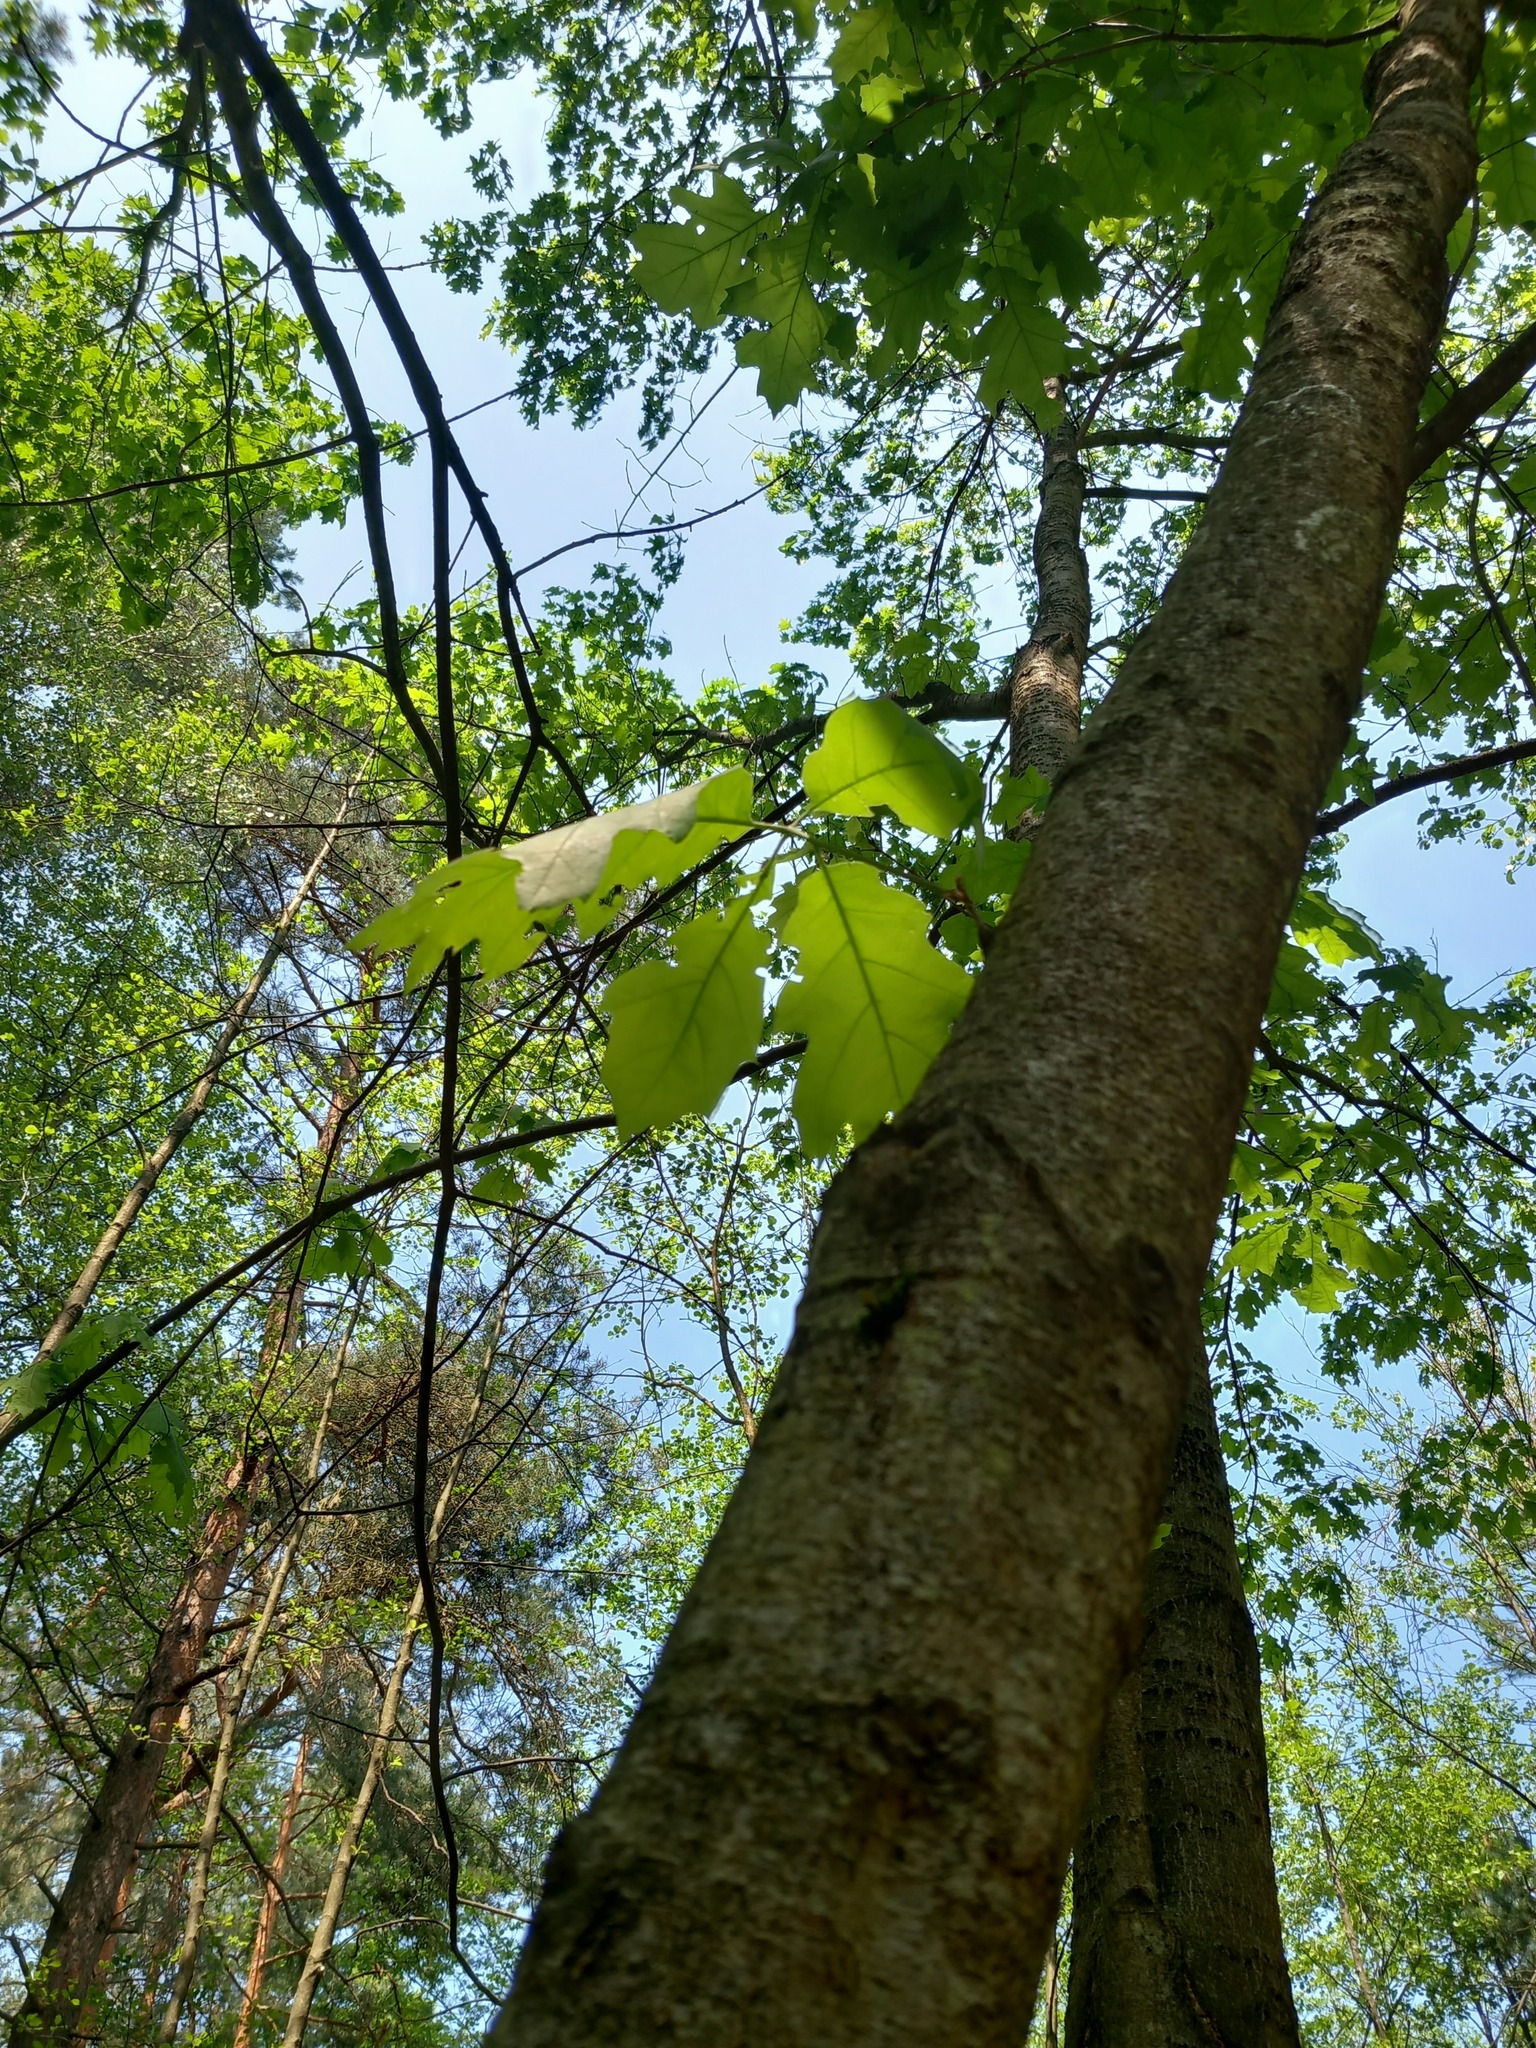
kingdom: Plantae
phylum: Tracheophyta
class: Magnoliopsida
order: Fagales
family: Fagaceae
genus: Quercus
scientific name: Quercus rubra
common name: Red oak
